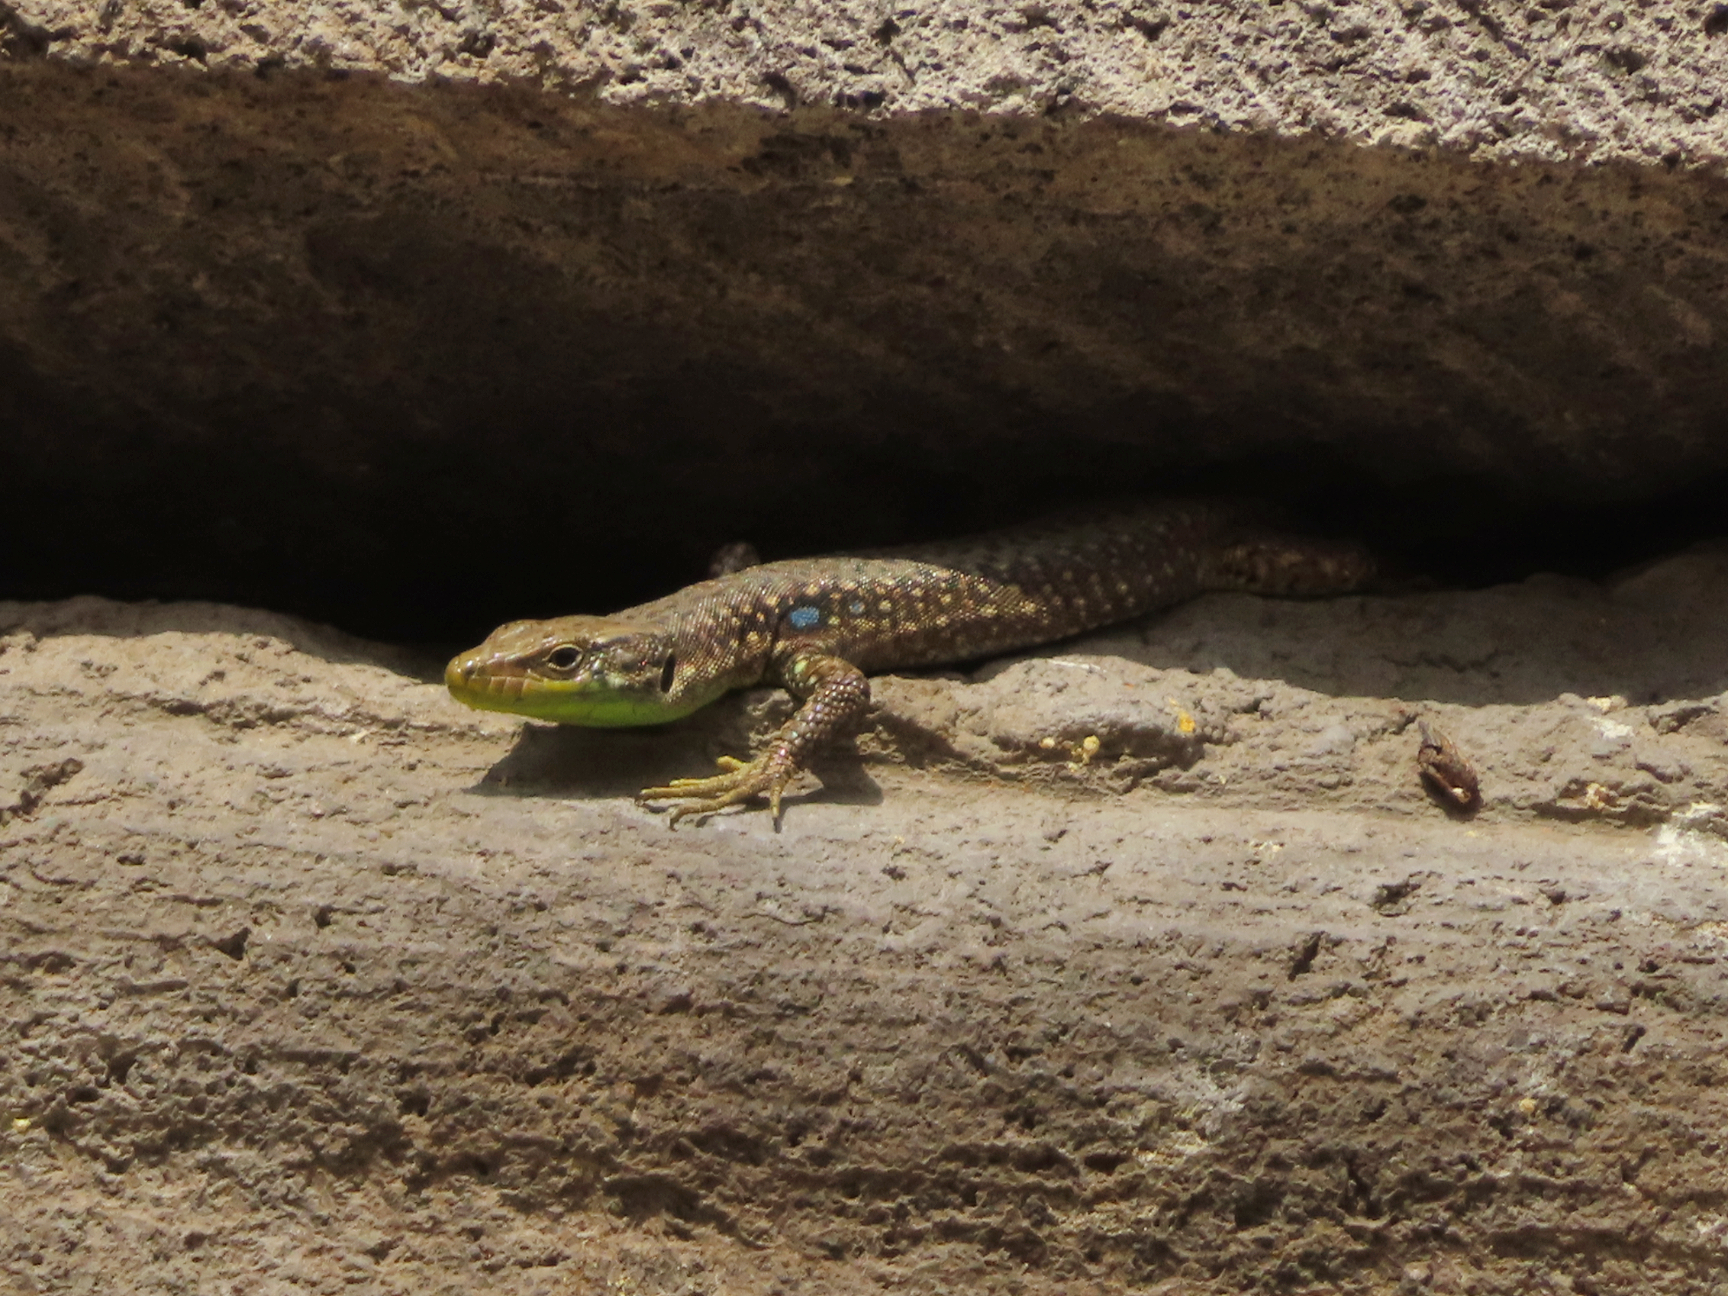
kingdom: Animalia
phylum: Chordata
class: Squamata
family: Lacertidae
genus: Darevskia
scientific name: Darevskia raddei
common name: Radde's lizard
